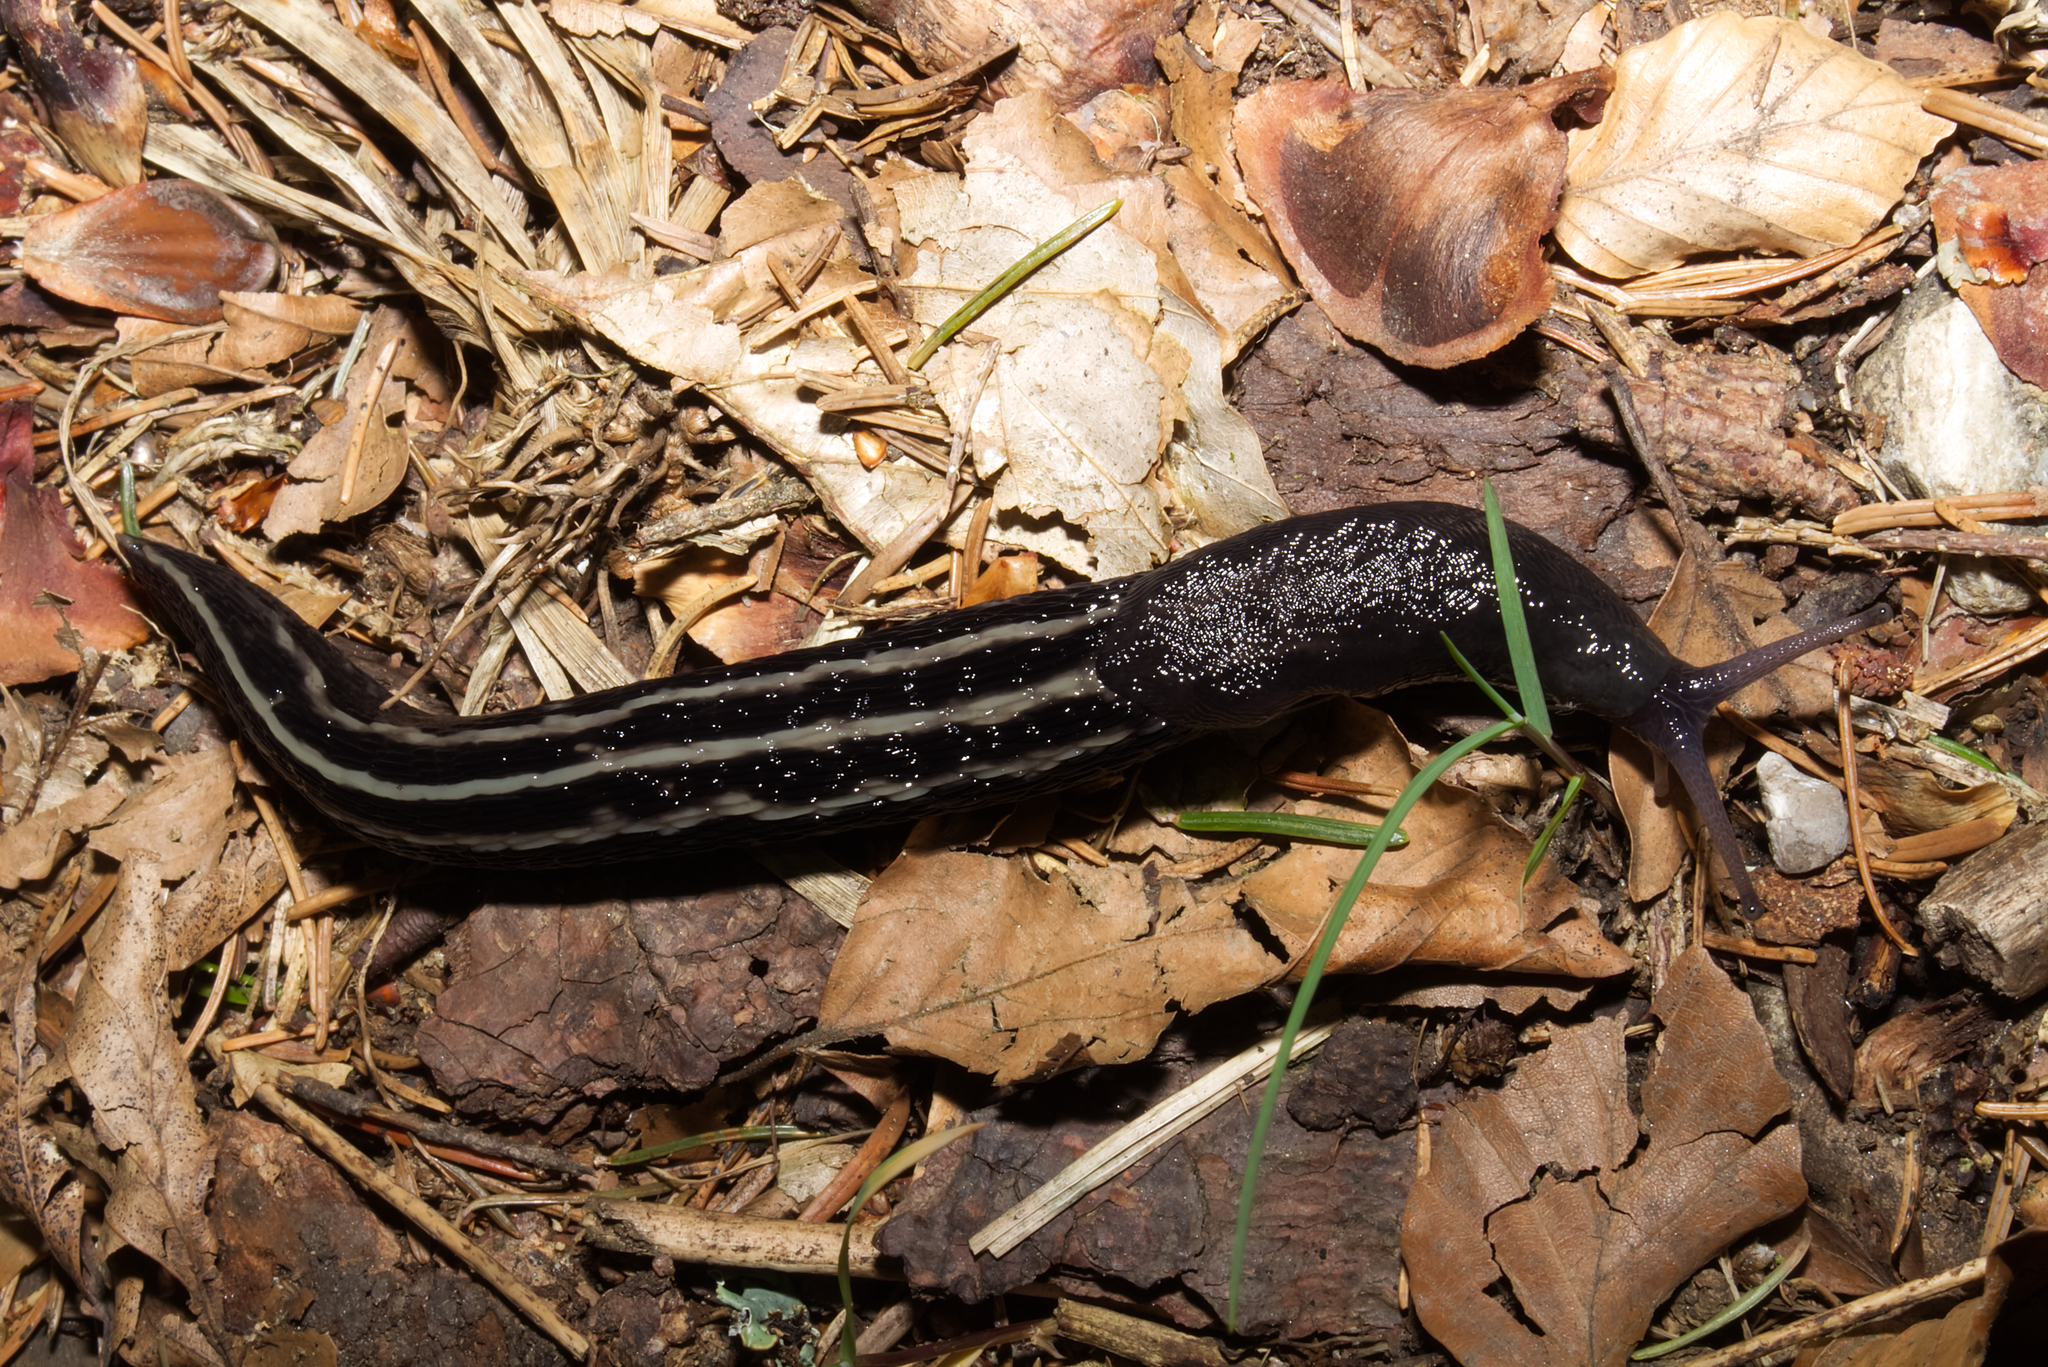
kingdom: Animalia
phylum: Mollusca
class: Gastropoda
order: Stylommatophora
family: Limacidae
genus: Limax
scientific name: Limax cinereoniger
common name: Ash-black slug
